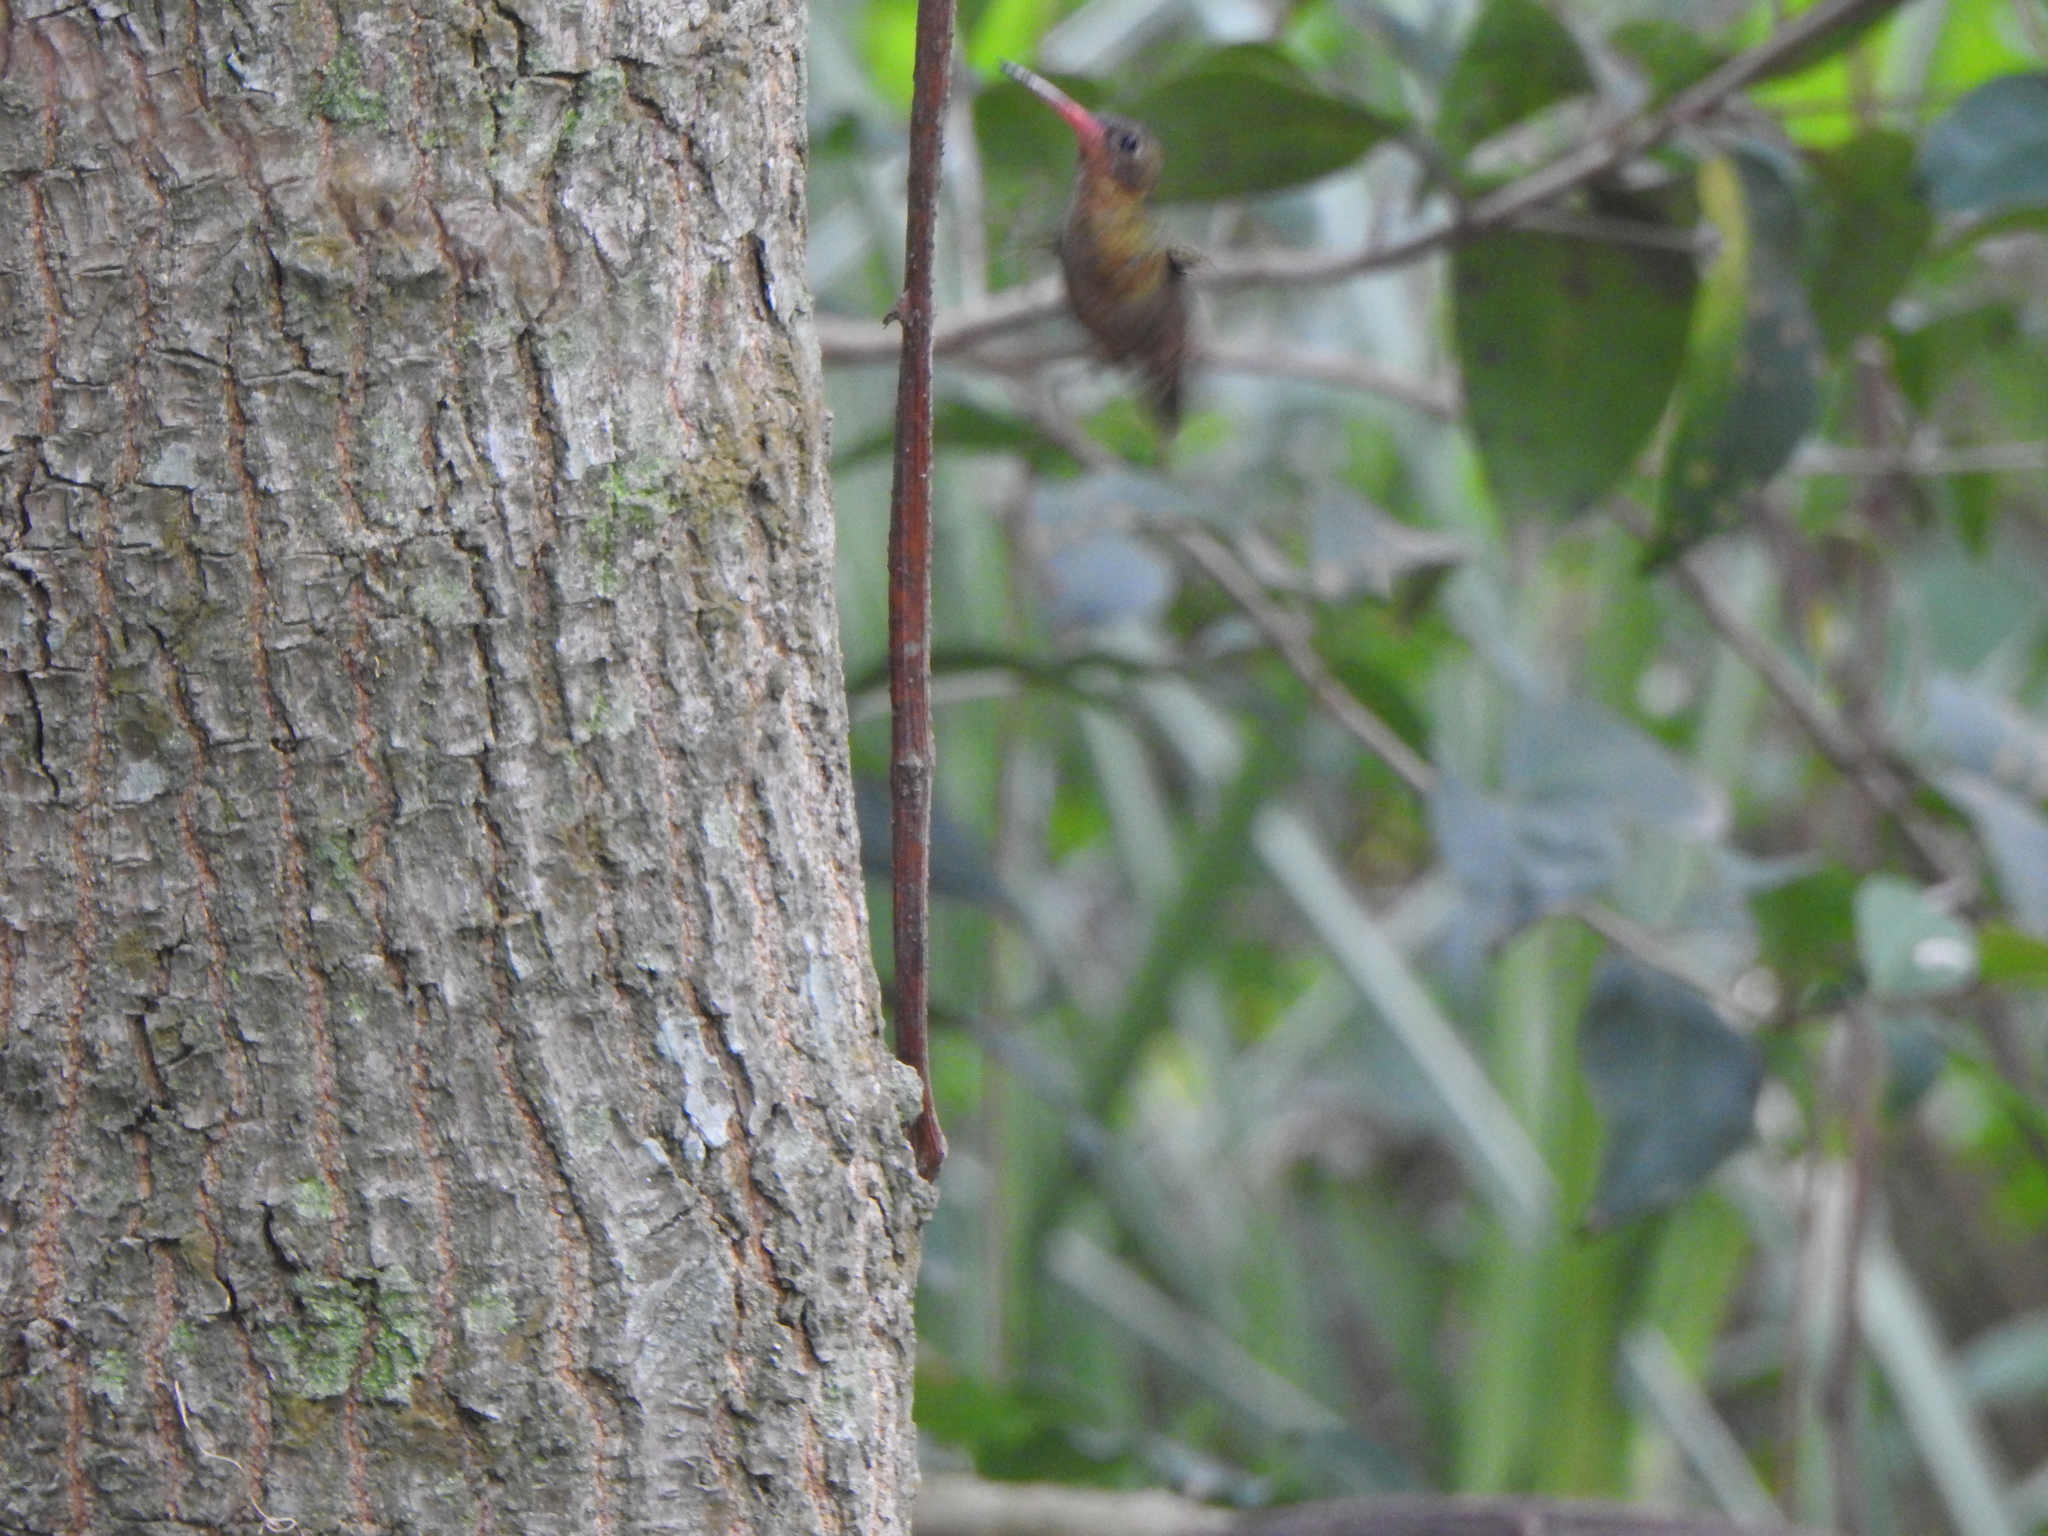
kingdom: Animalia
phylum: Chordata
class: Aves
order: Apodiformes
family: Trochilidae
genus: Hylocharis
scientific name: Hylocharis chrysura
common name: Gilded sapphire
